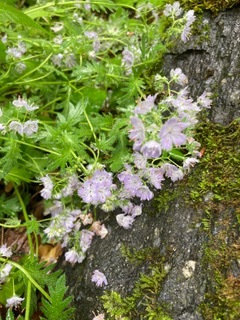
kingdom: Plantae
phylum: Tracheophyta
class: Magnoliopsida
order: Boraginales
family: Hydrophyllaceae
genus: Phacelia
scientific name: Phacelia purshii
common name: Miami-mist
